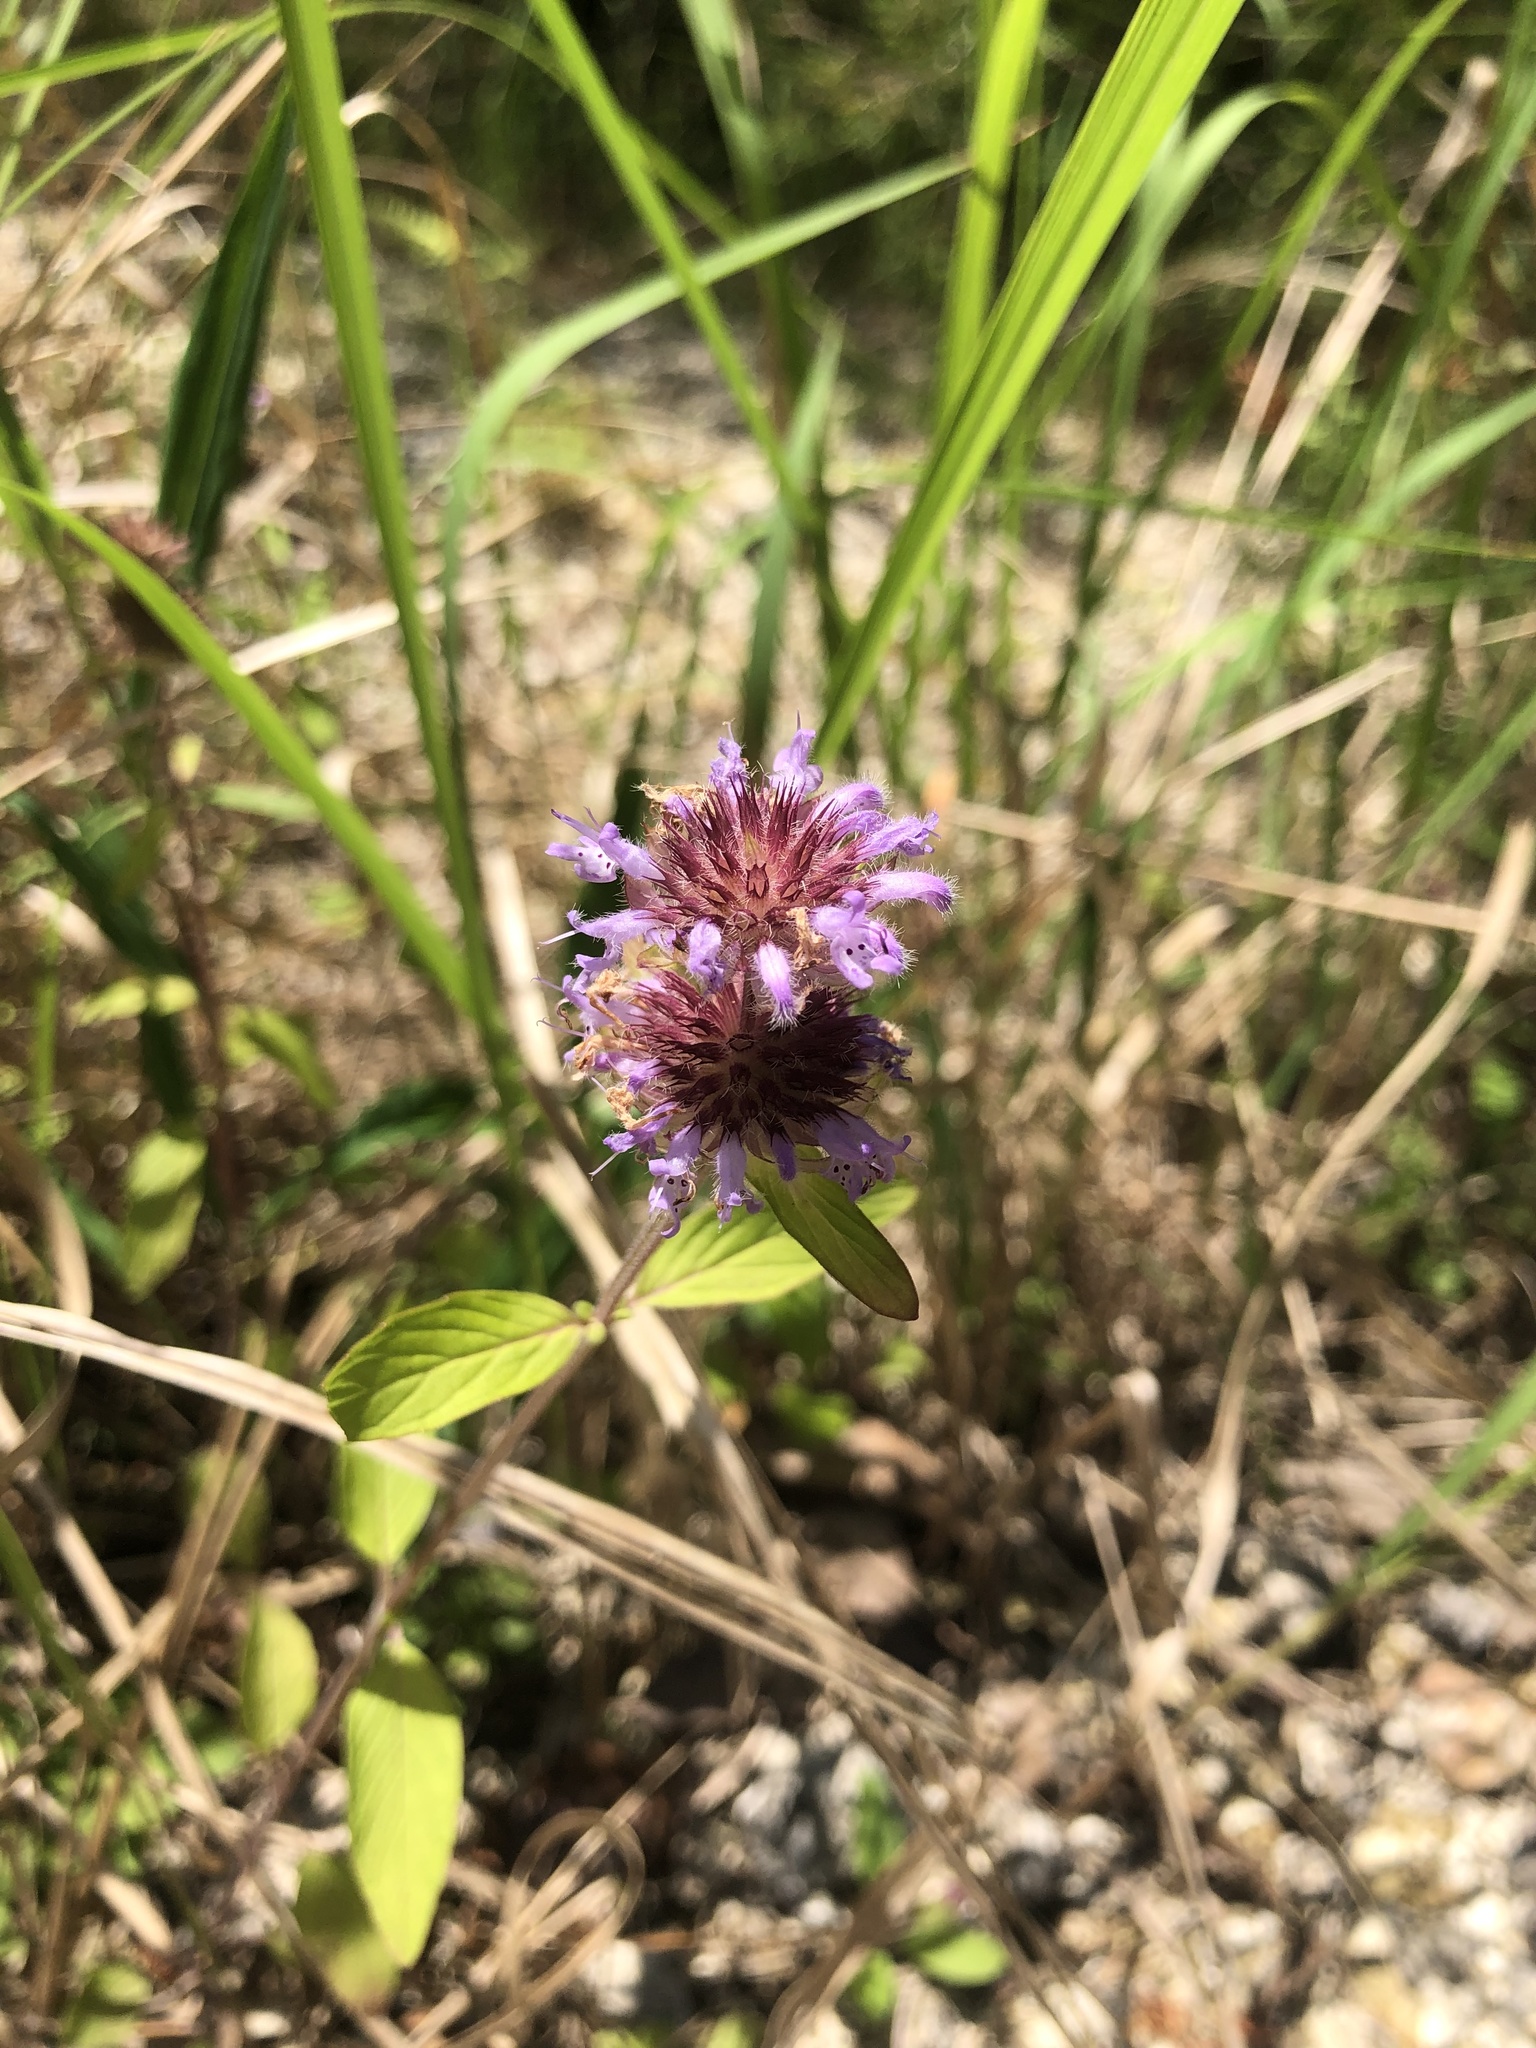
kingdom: Plantae
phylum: Tracheophyta
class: Magnoliopsida
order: Lamiales
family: Lamiaceae
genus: Blephilia
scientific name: Blephilia ciliata
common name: Downy blephilia
